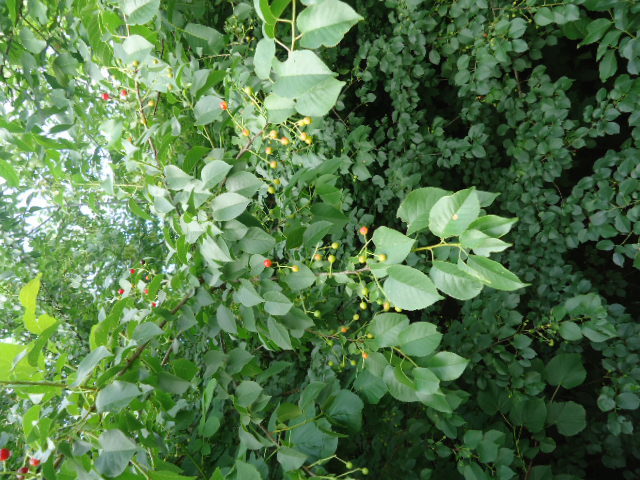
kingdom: Plantae
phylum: Tracheophyta
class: Magnoliopsida
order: Rosales
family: Rosaceae
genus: Prunus
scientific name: Prunus mahaleb
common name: Mahaleb cherry
